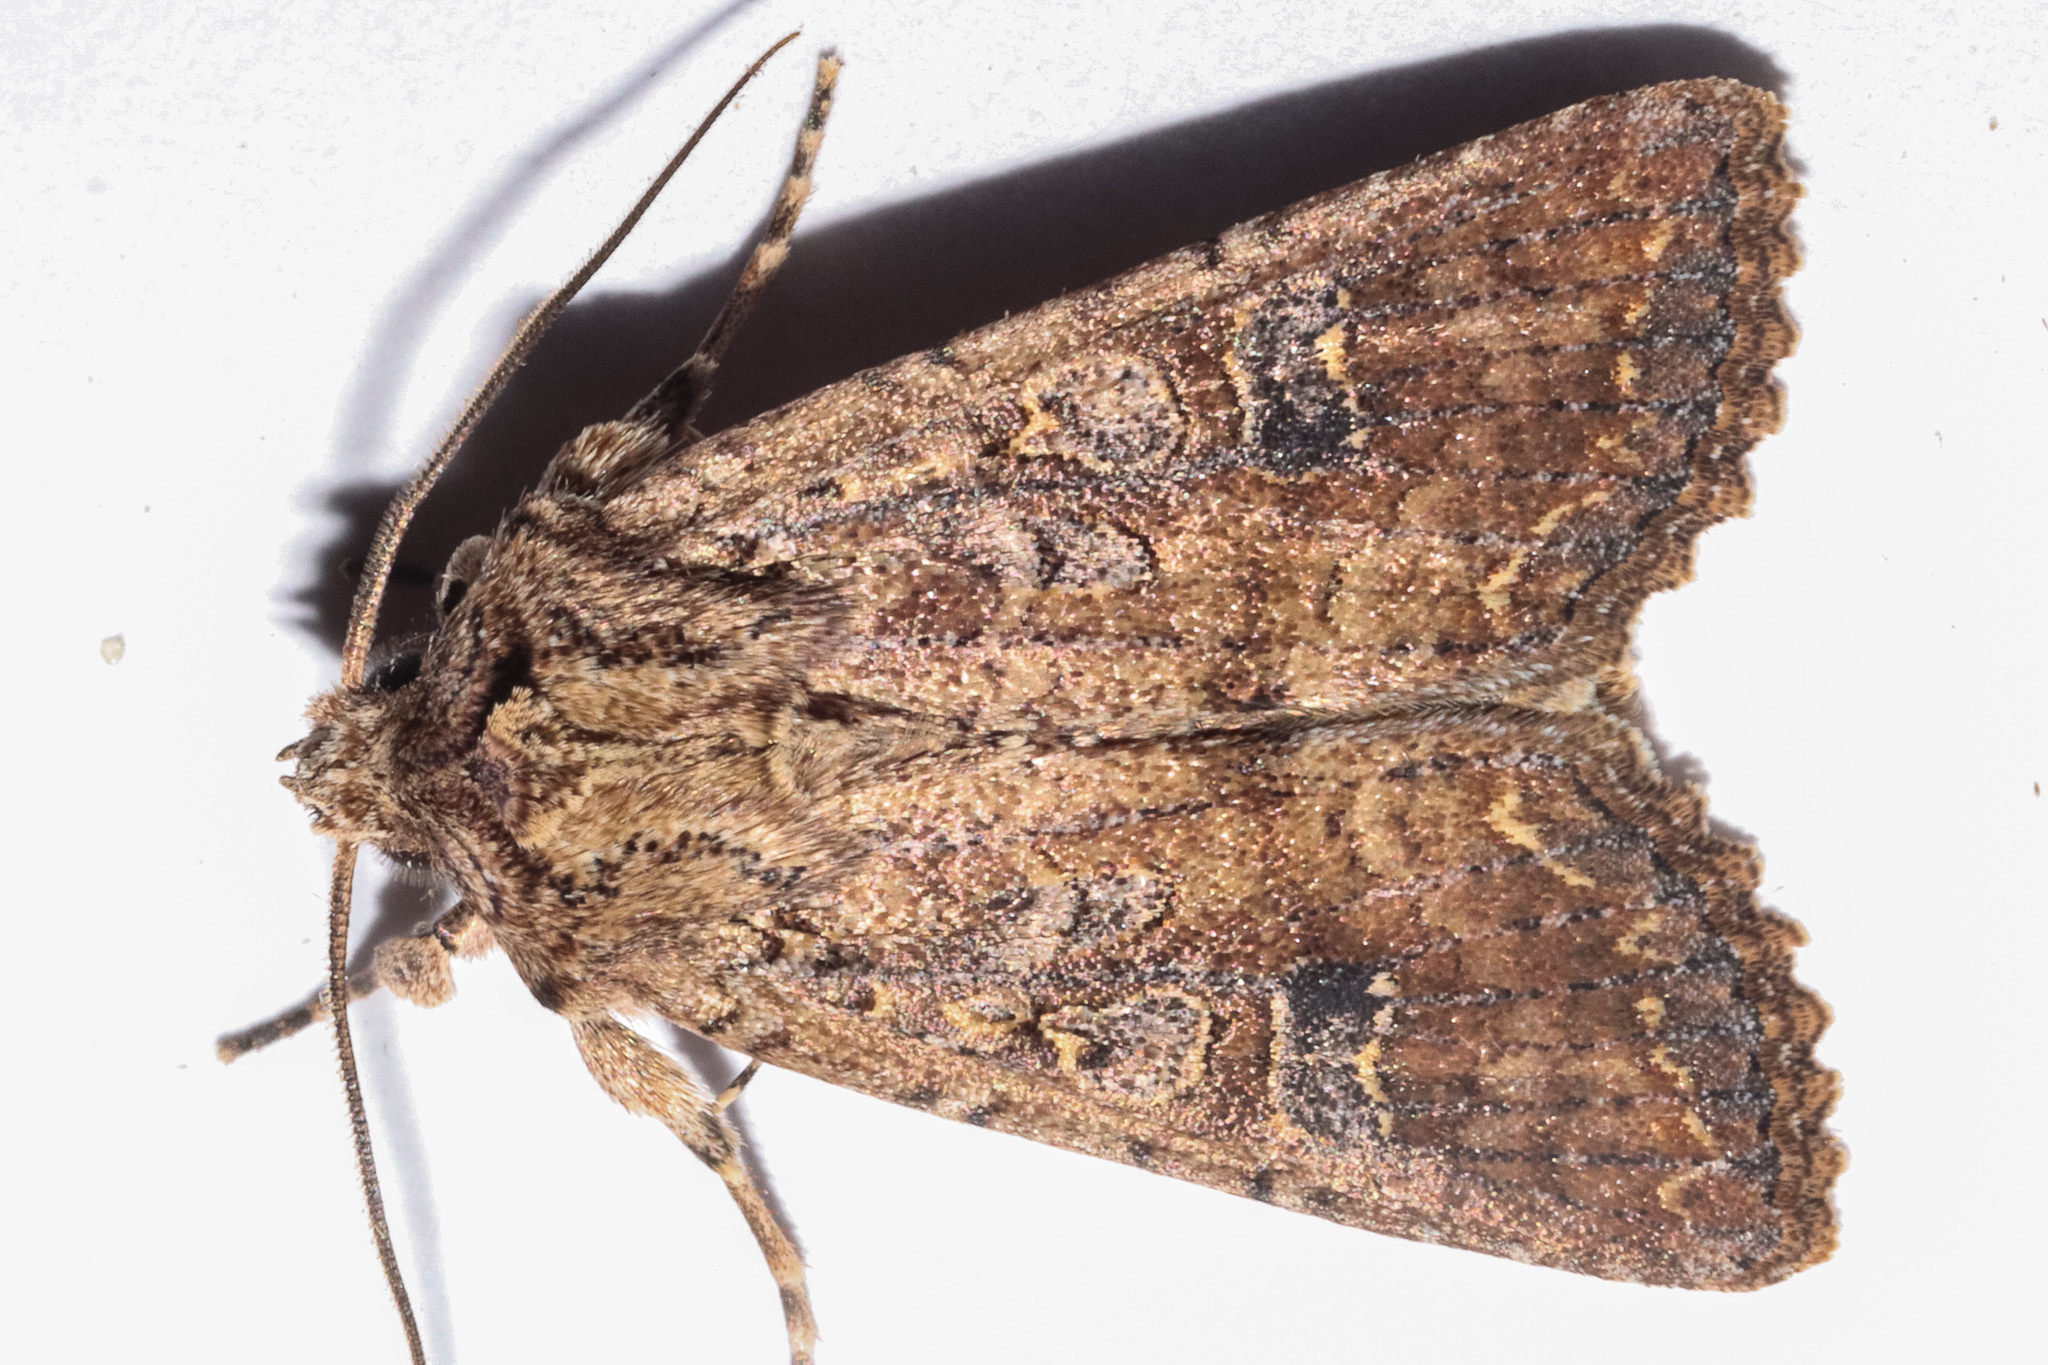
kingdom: Animalia
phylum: Arthropoda
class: Insecta
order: Lepidoptera
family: Noctuidae
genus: Ichneutica
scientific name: Ichneutica morosa
